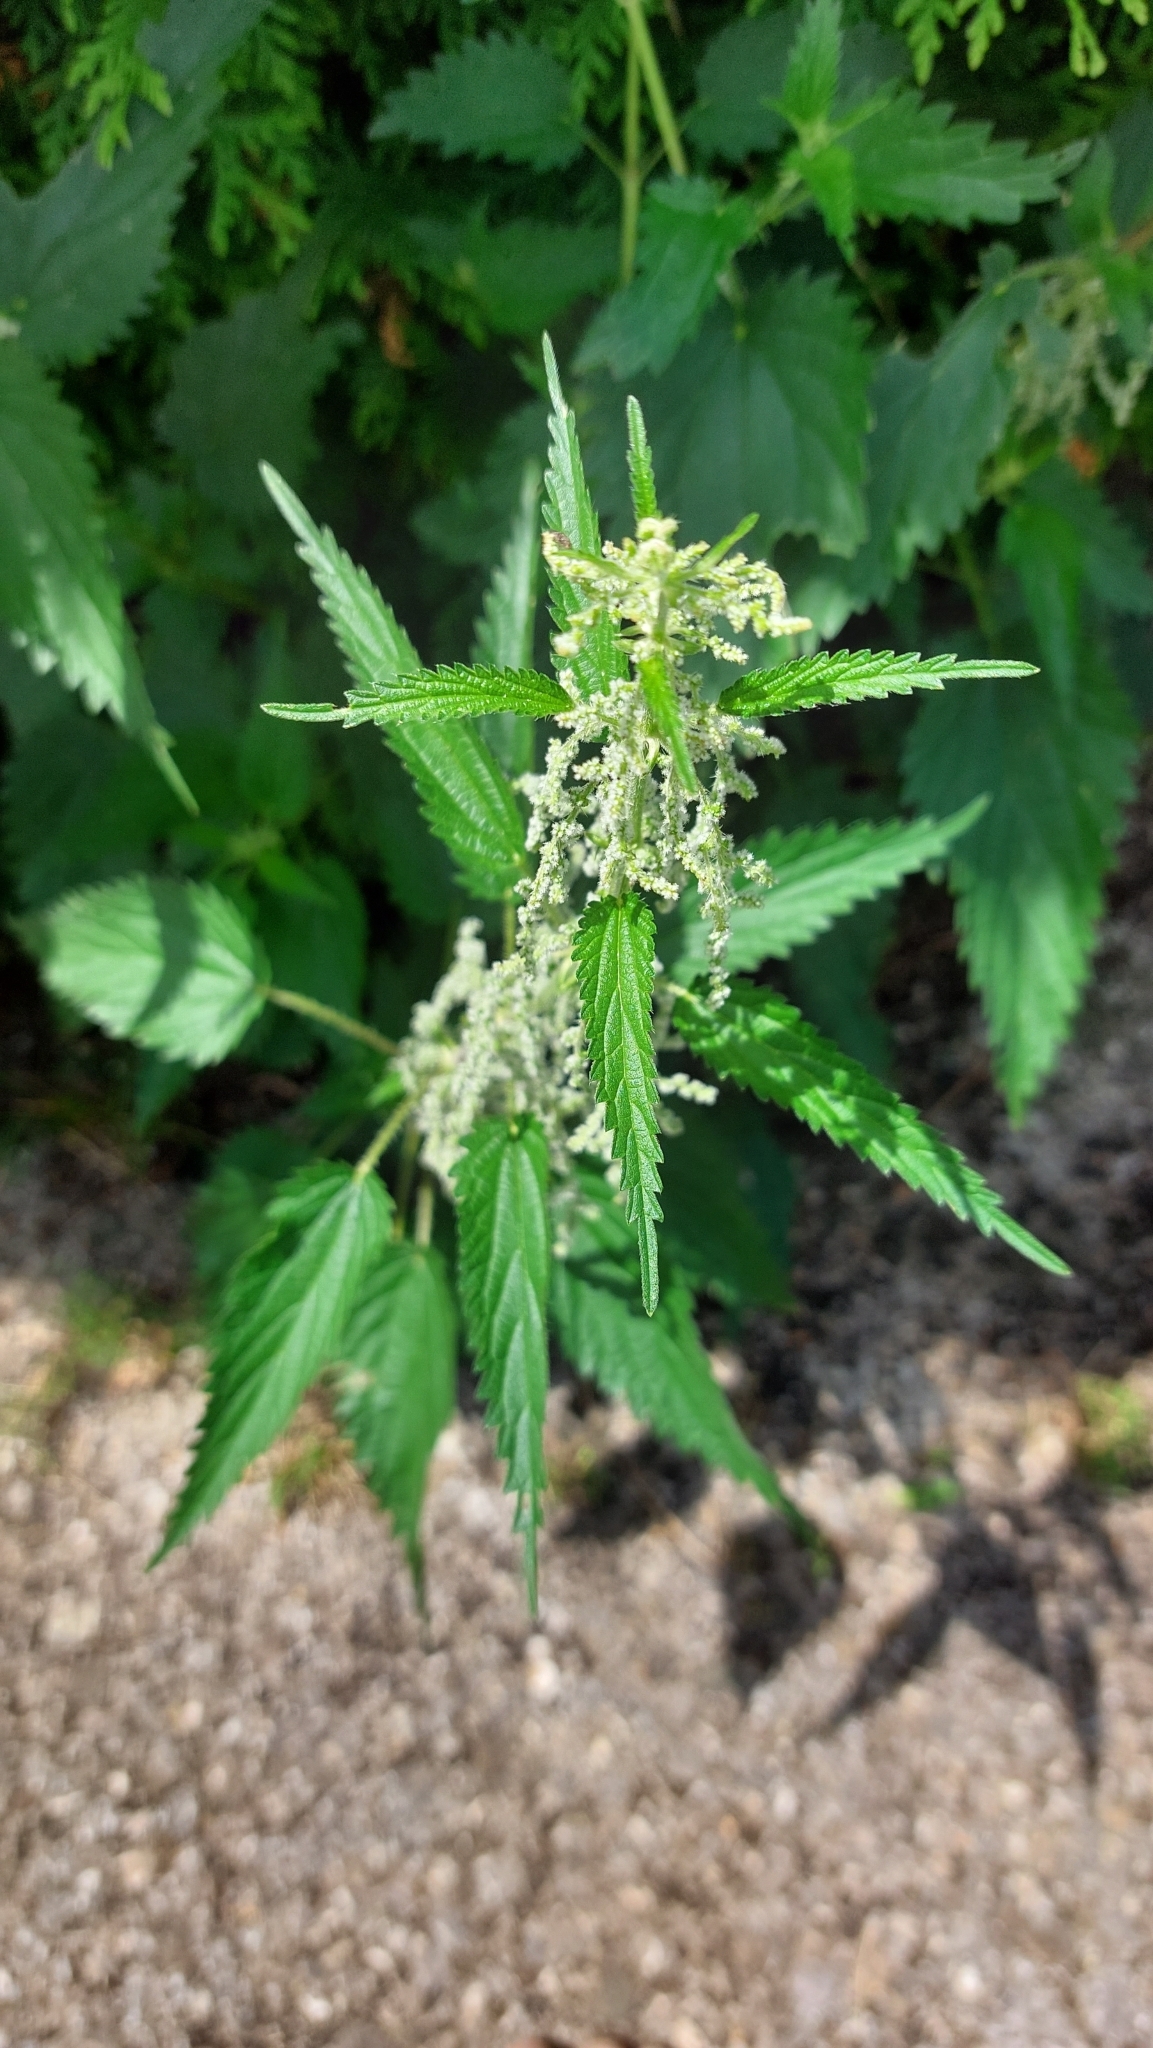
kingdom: Plantae
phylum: Tracheophyta
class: Magnoliopsida
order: Rosales
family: Urticaceae
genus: Urtica
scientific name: Urtica dioica
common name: Common nettle
